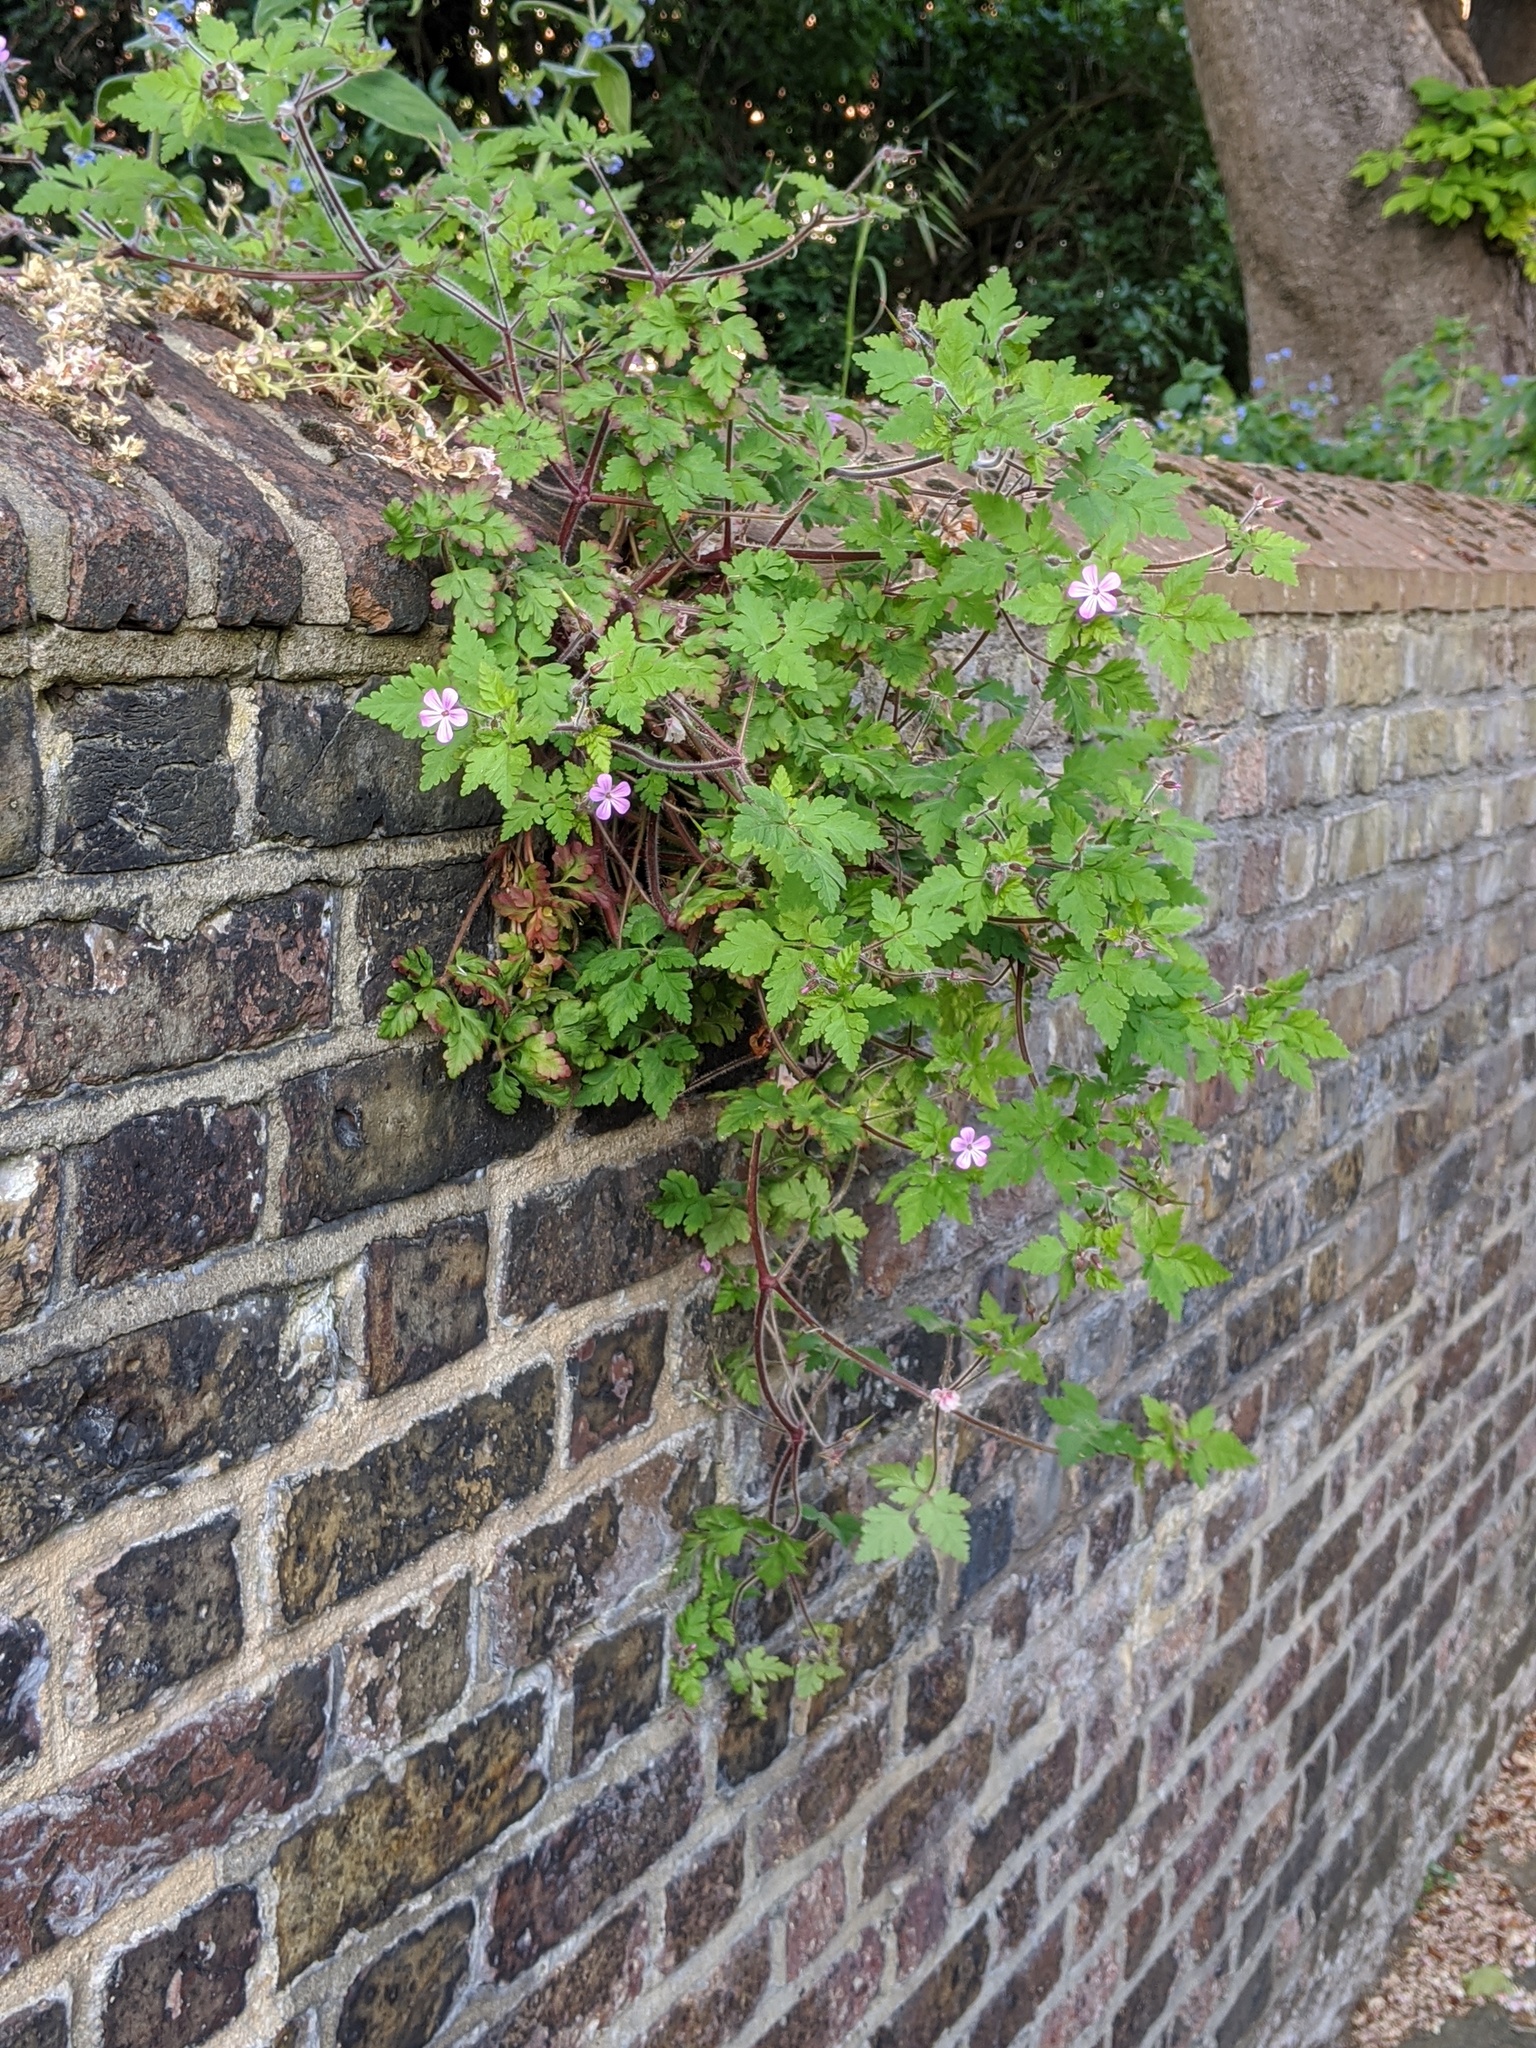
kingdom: Plantae
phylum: Tracheophyta
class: Magnoliopsida
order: Geraniales
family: Geraniaceae
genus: Geranium
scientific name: Geranium robertianum
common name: Herb-robert
